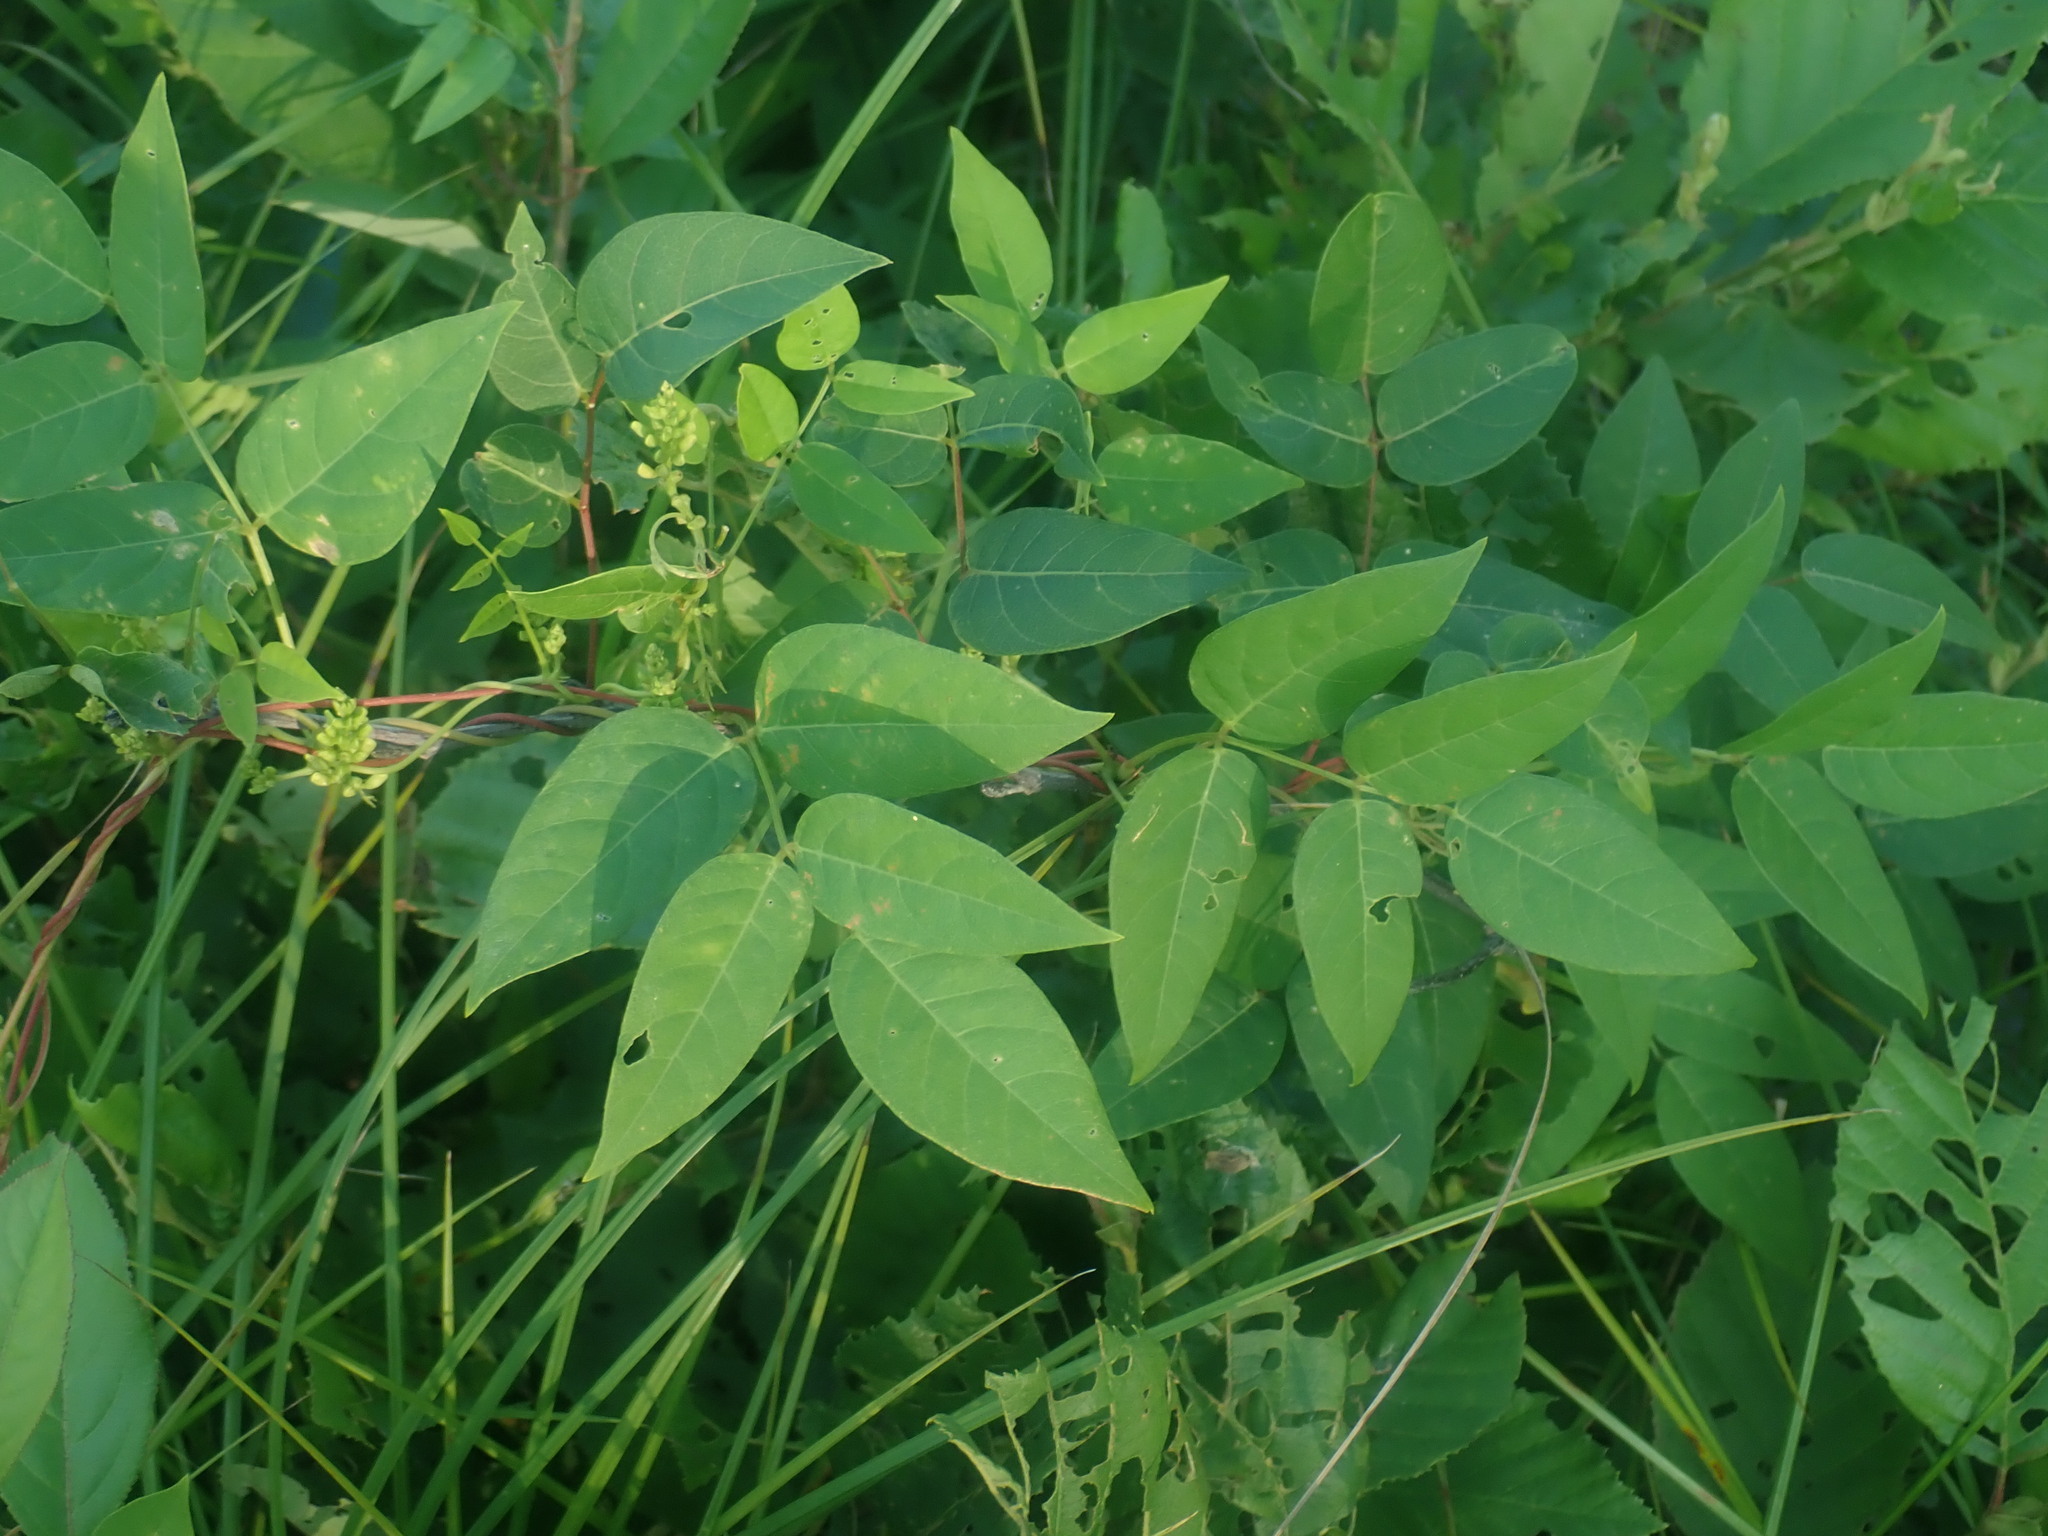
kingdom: Plantae
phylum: Tracheophyta
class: Magnoliopsida
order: Fabales
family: Fabaceae
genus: Apios
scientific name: Apios americana
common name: American potato-bean
